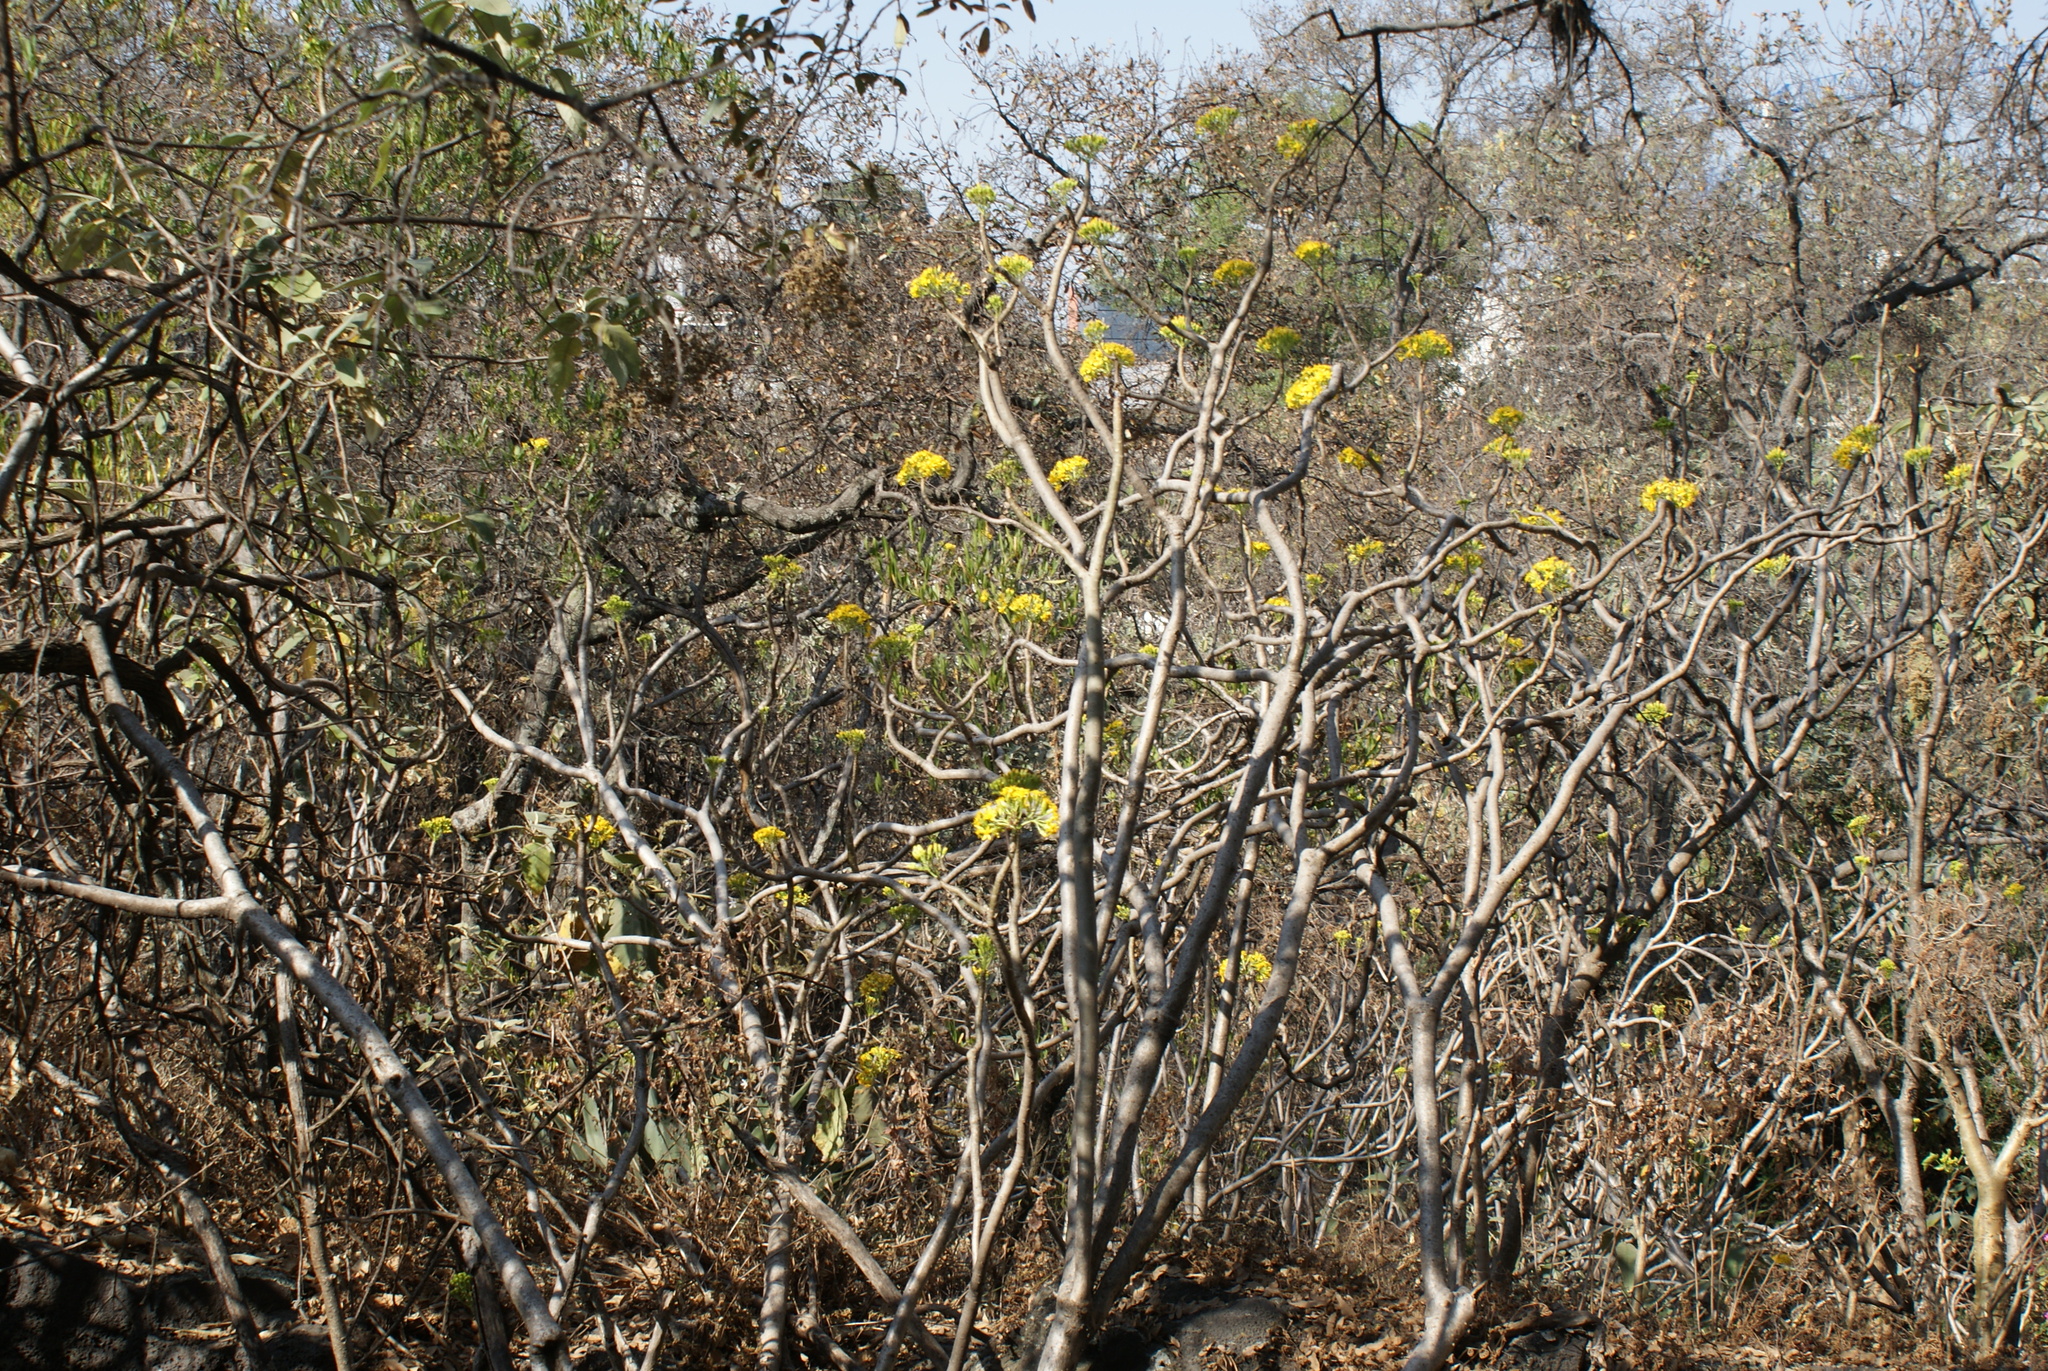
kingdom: Plantae
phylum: Tracheophyta
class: Magnoliopsida
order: Asterales
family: Asteraceae
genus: Pittocaulon
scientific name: Pittocaulon praecox
